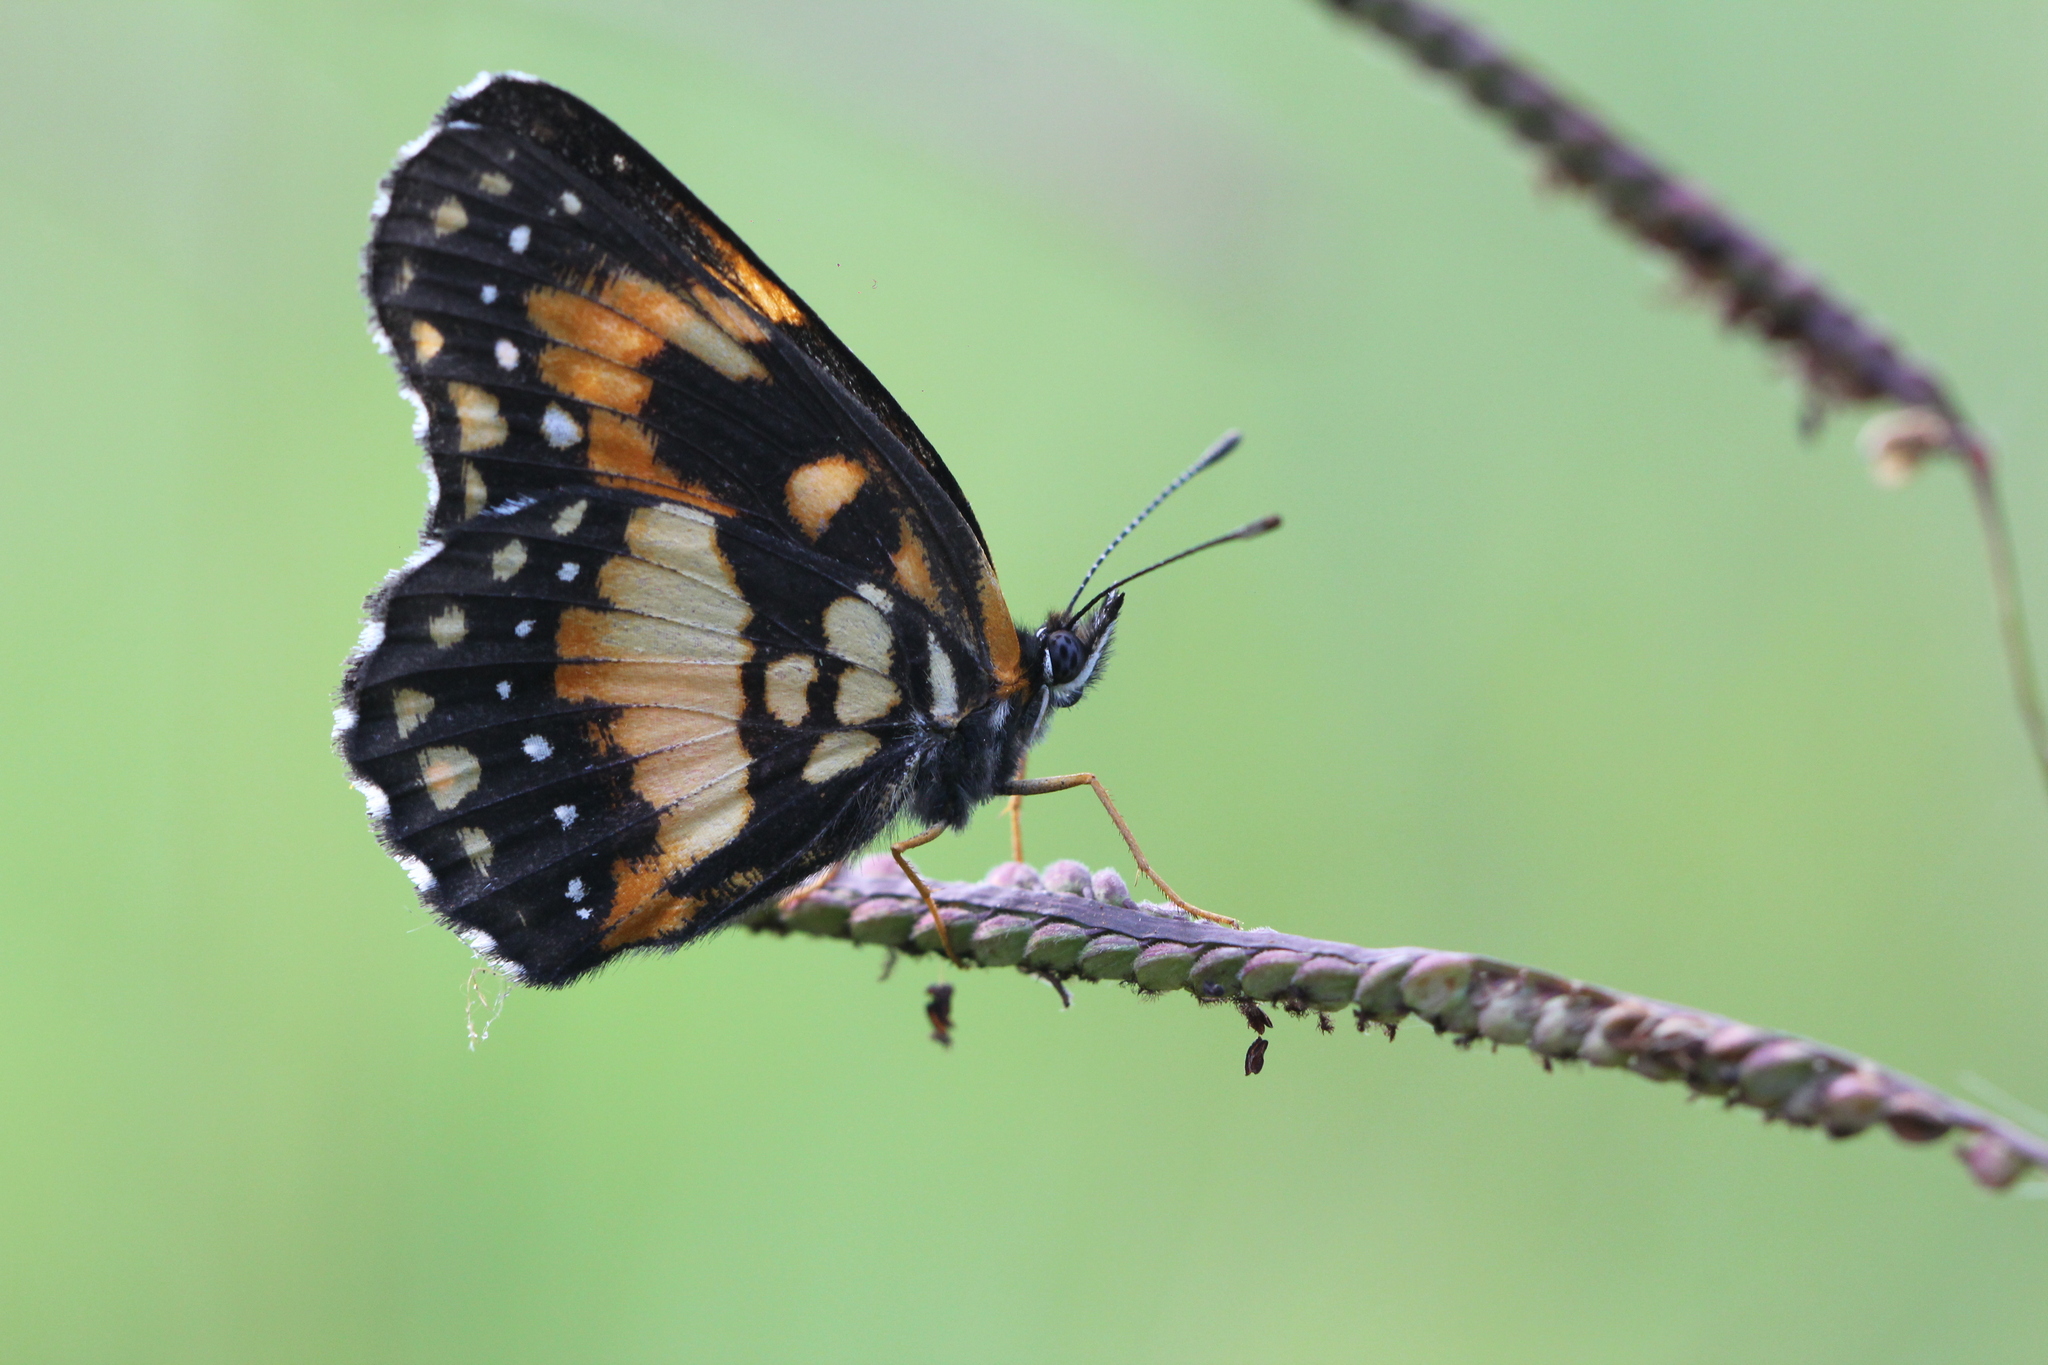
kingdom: Animalia
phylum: Arthropoda
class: Insecta
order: Lepidoptera
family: Nymphalidae
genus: Chlosyne
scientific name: Chlosyne lacinia
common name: Bordered patch
